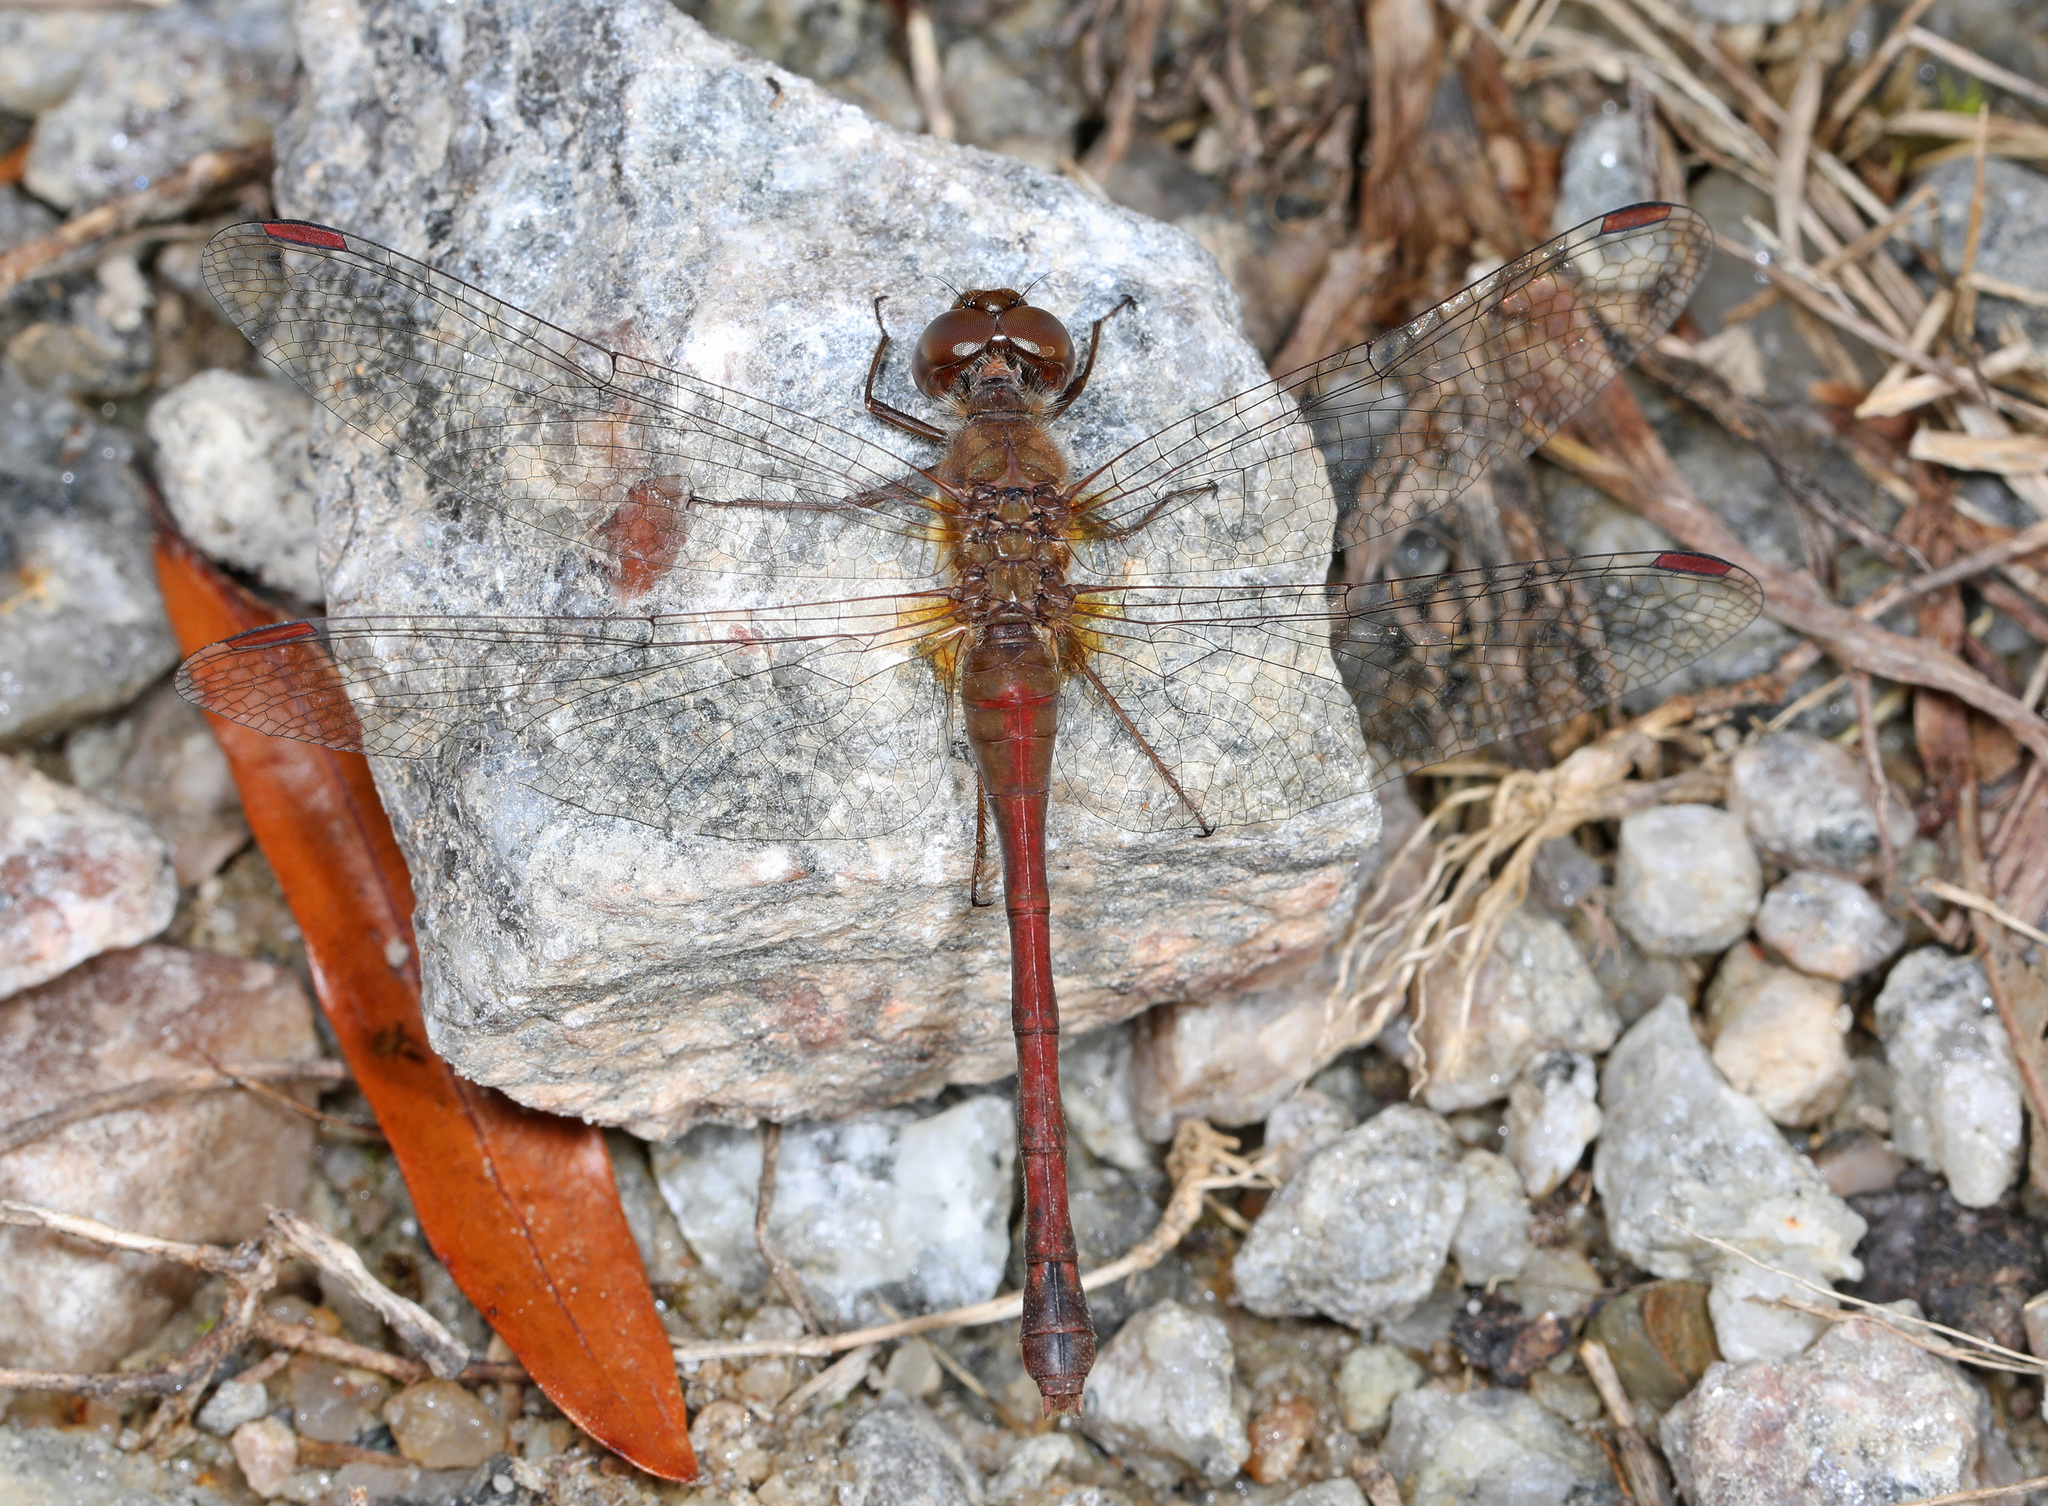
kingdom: Animalia
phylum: Arthropoda
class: Insecta
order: Odonata
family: Libellulidae
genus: Sympetrum
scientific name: Sympetrum vicinum
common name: Autumn meadowhawk
